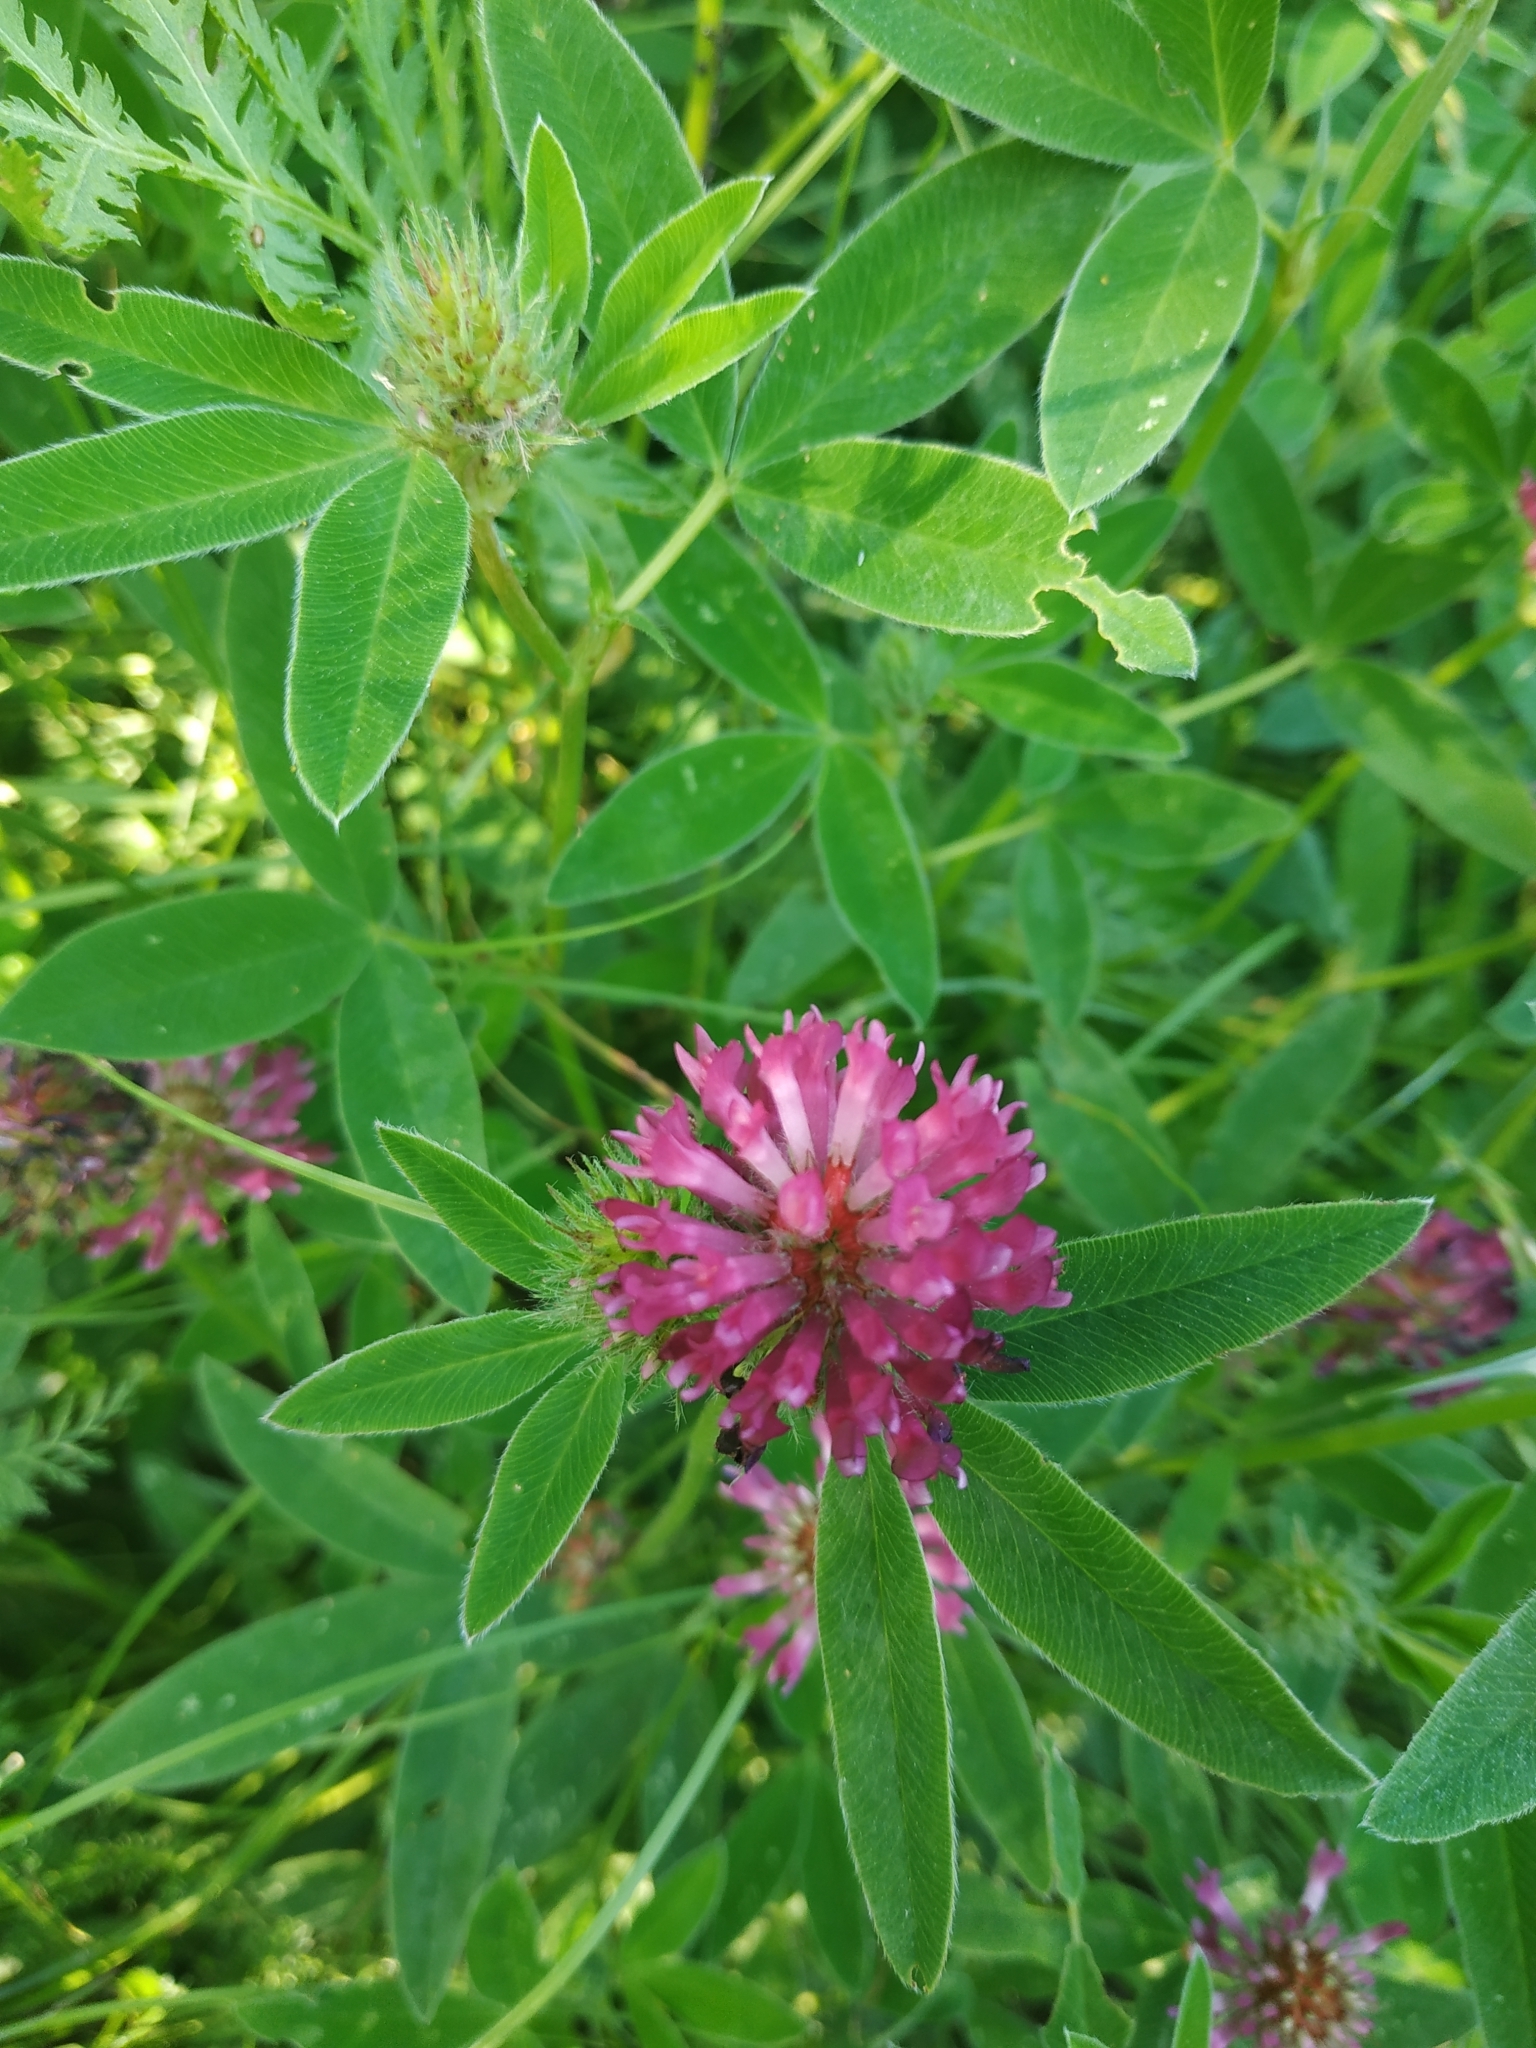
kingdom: Plantae
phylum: Tracheophyta
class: Magnoliopsida
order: Fabales
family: Fabaceae
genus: Trifolium
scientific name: Trifolium medium
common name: Zigzag clover
